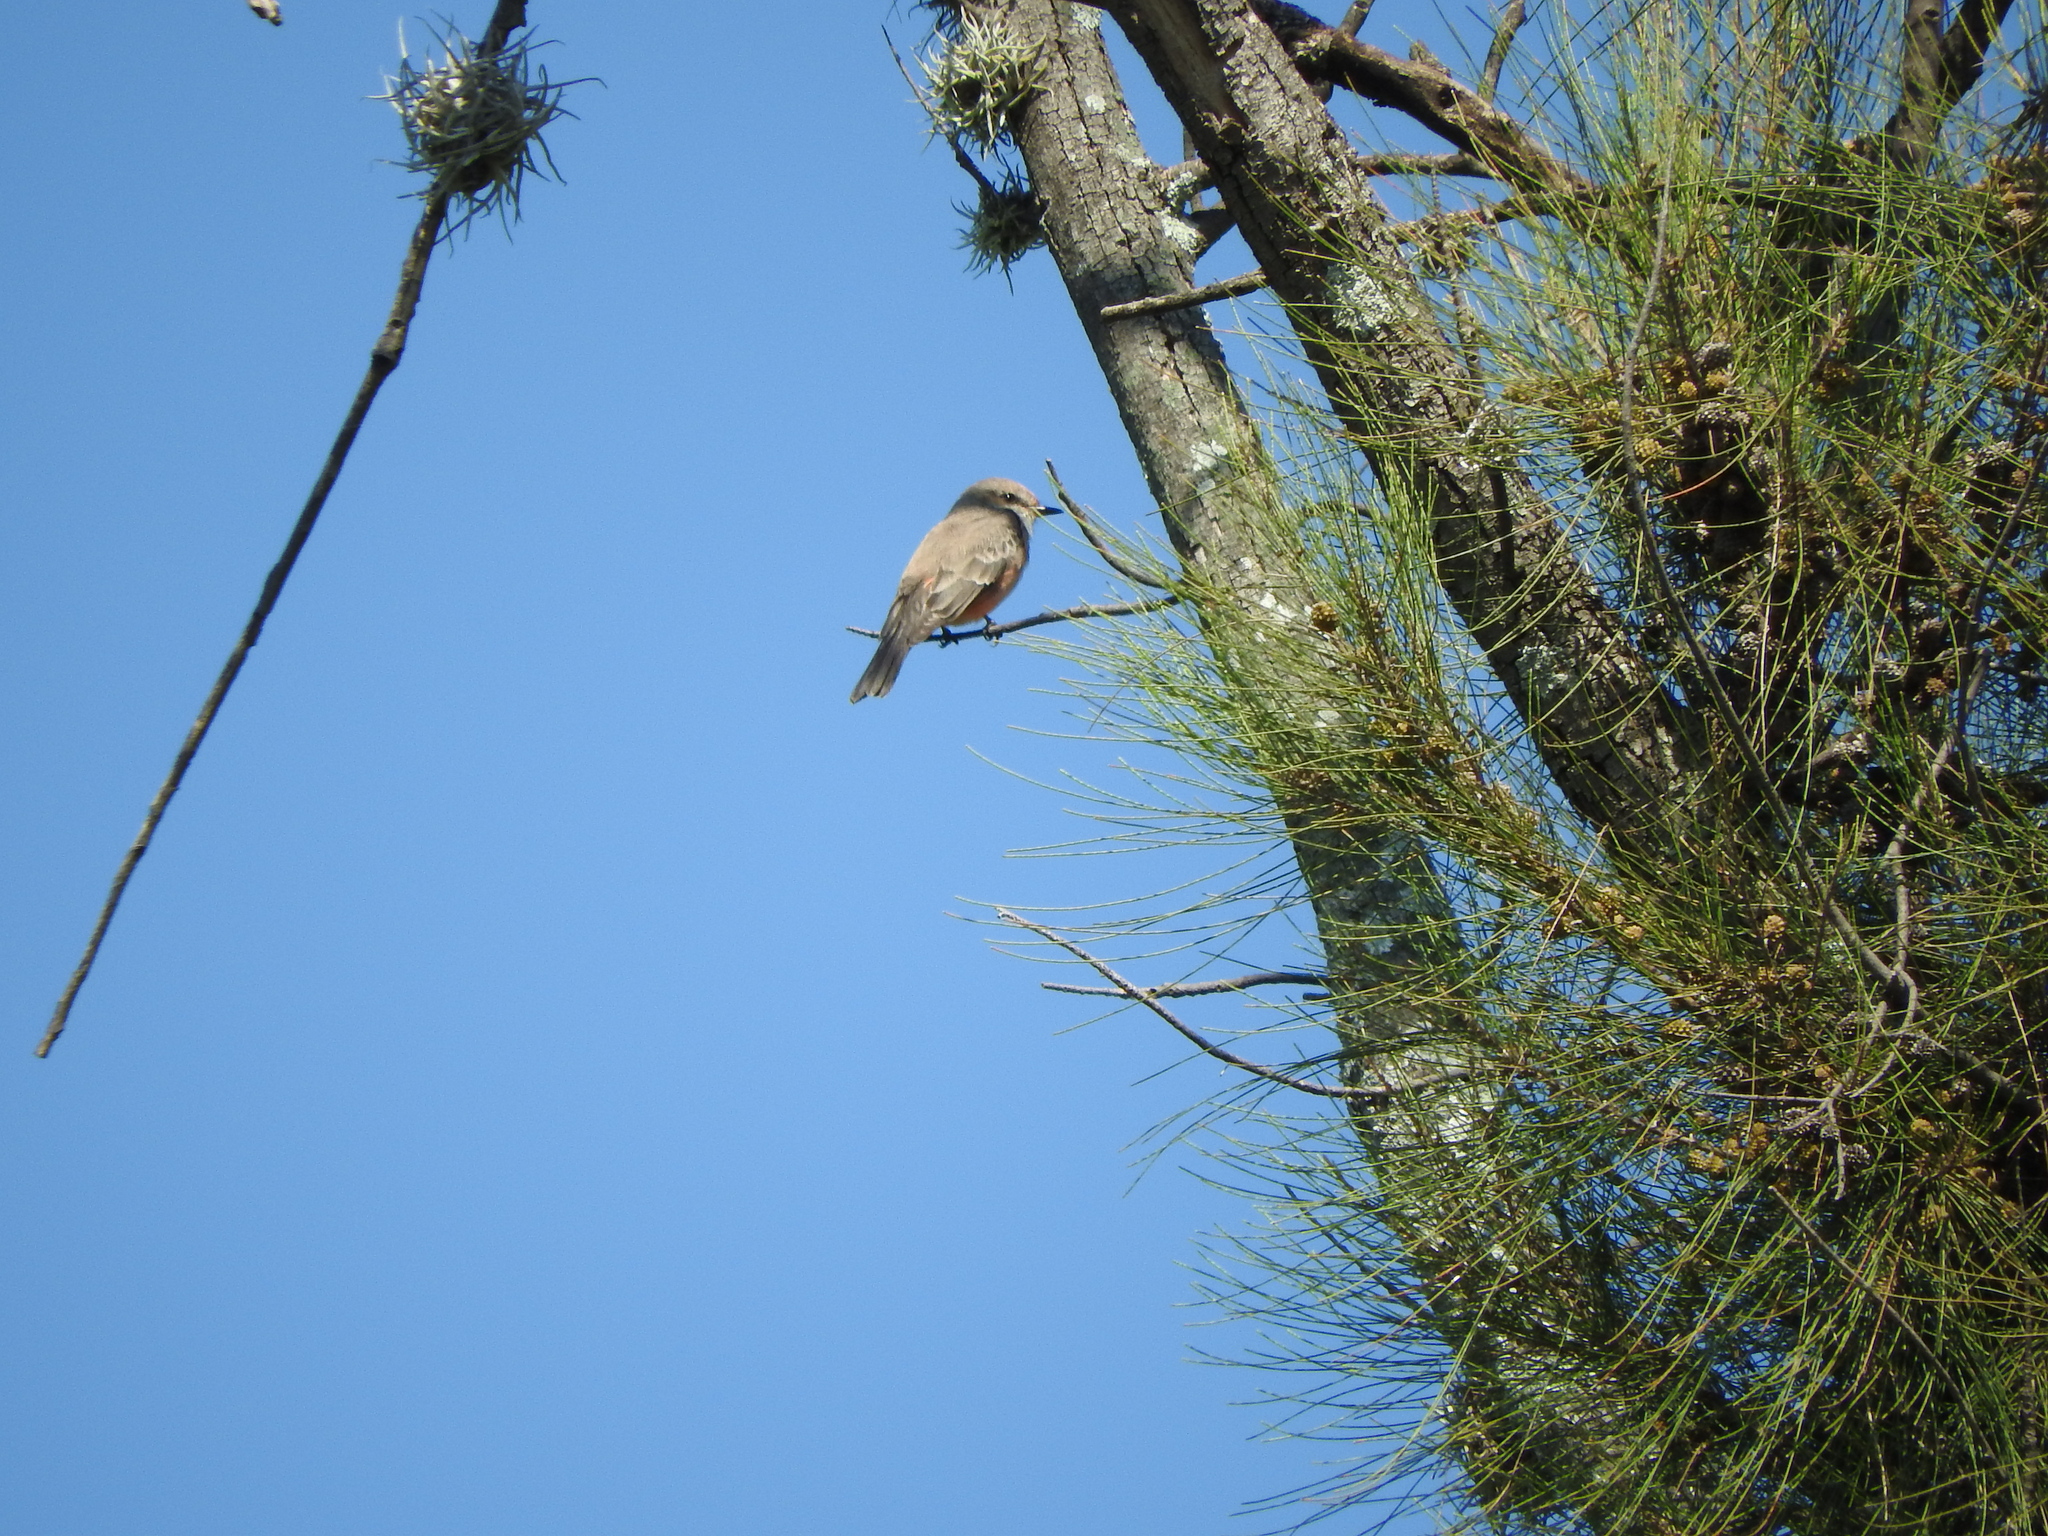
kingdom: Animalia
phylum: Chordata
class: Aves
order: Passeriformes
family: Tyrannidae
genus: Pyrocephalus
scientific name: Pyrocephalus rubinus
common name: Vermilion flycatcher
